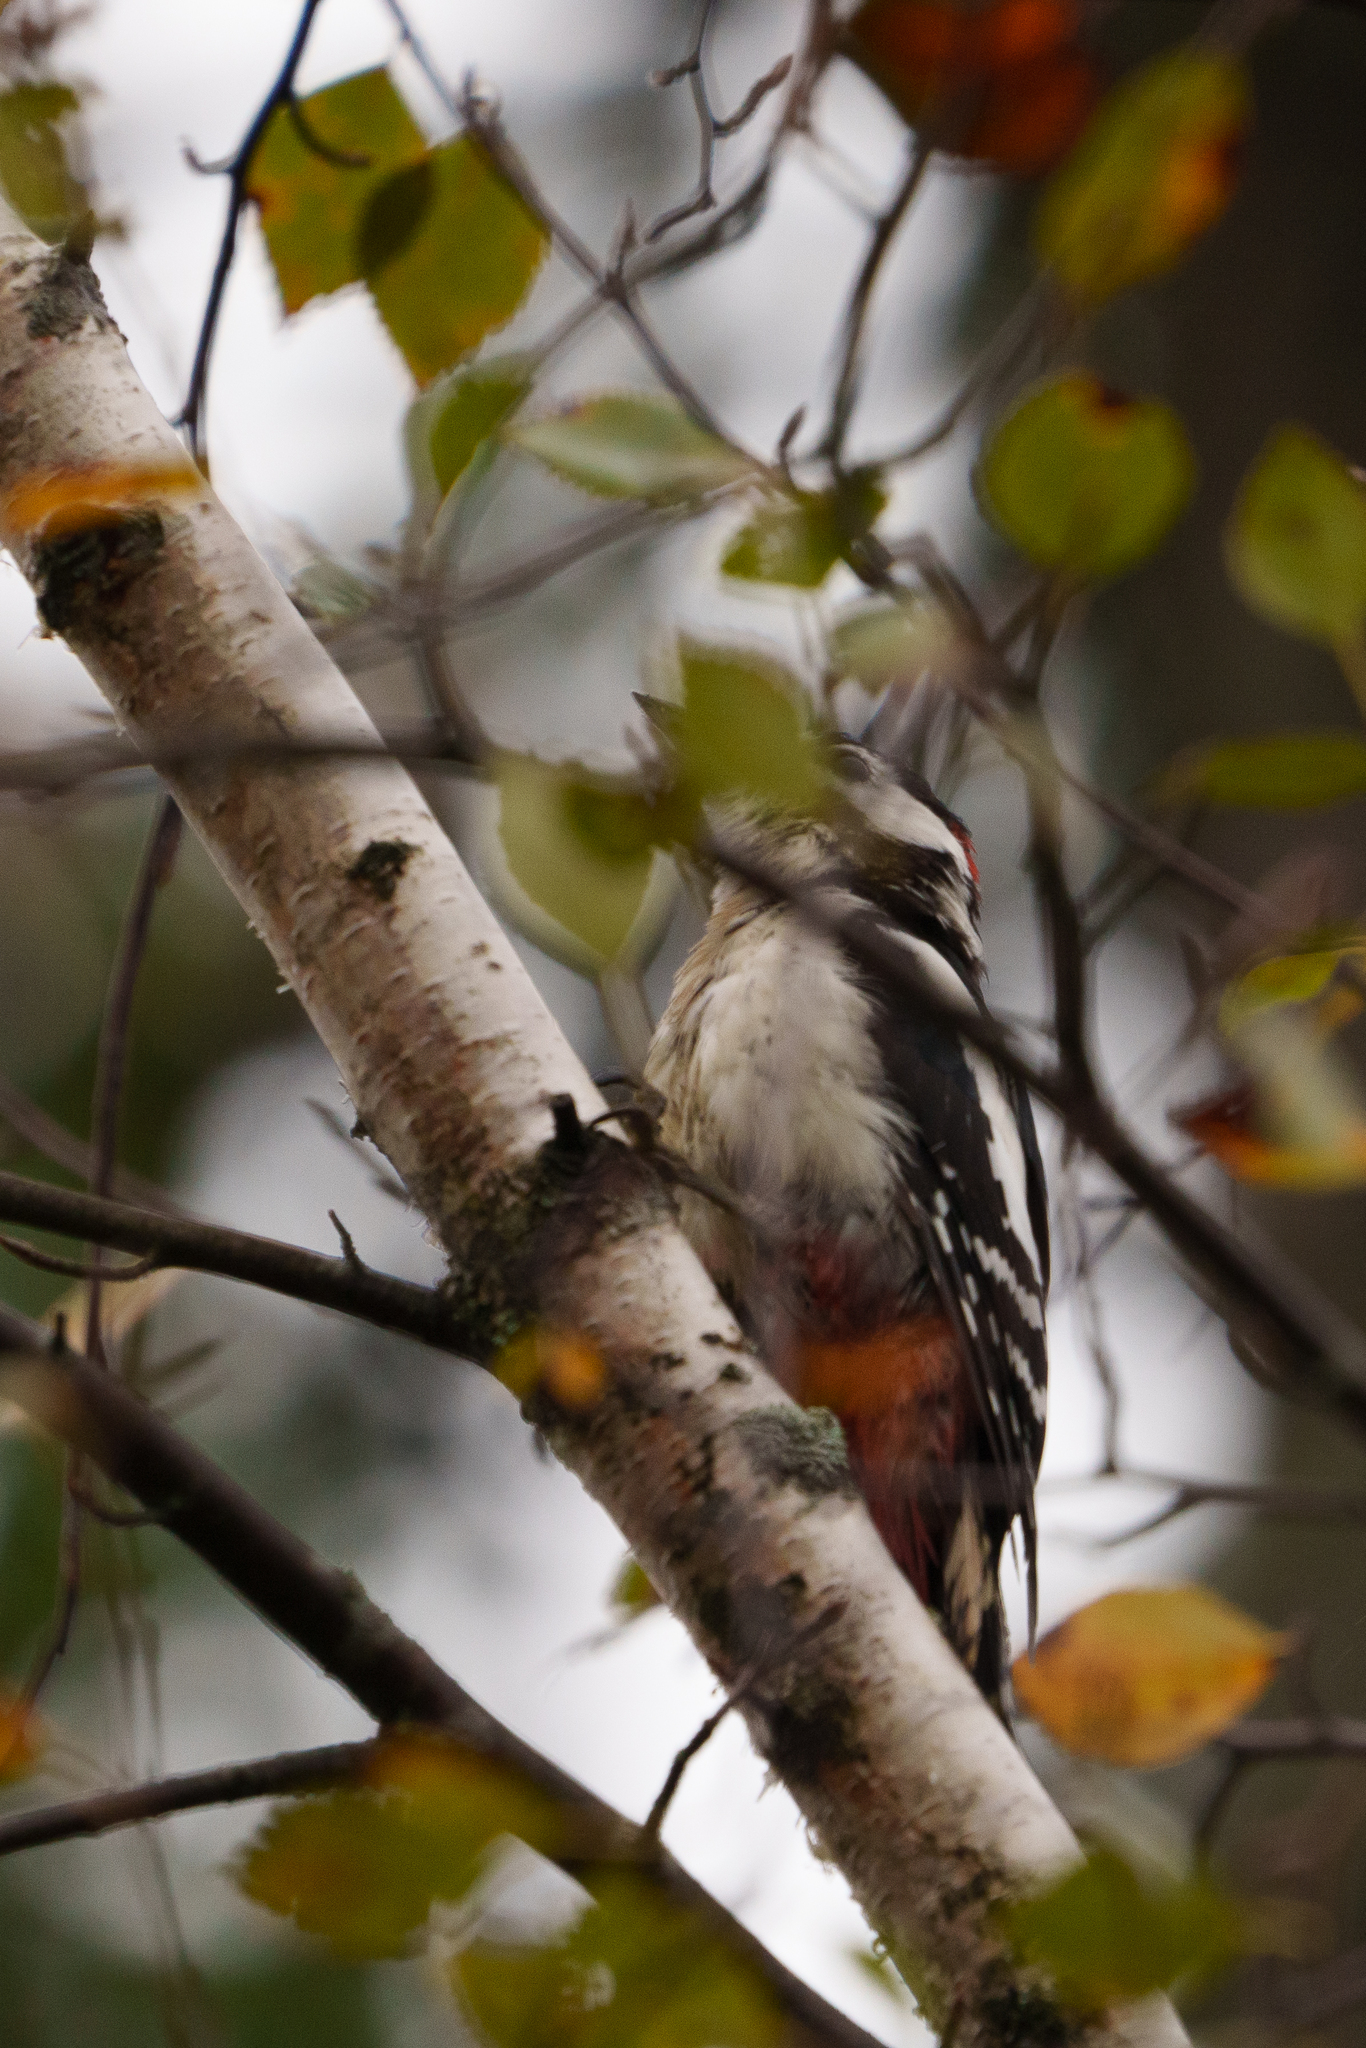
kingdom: Animalia
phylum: Chordata
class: Aves
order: Piciformes
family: Picidae
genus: Dendrocopos
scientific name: Dendrocopos major
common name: Great spotted woodpecker
